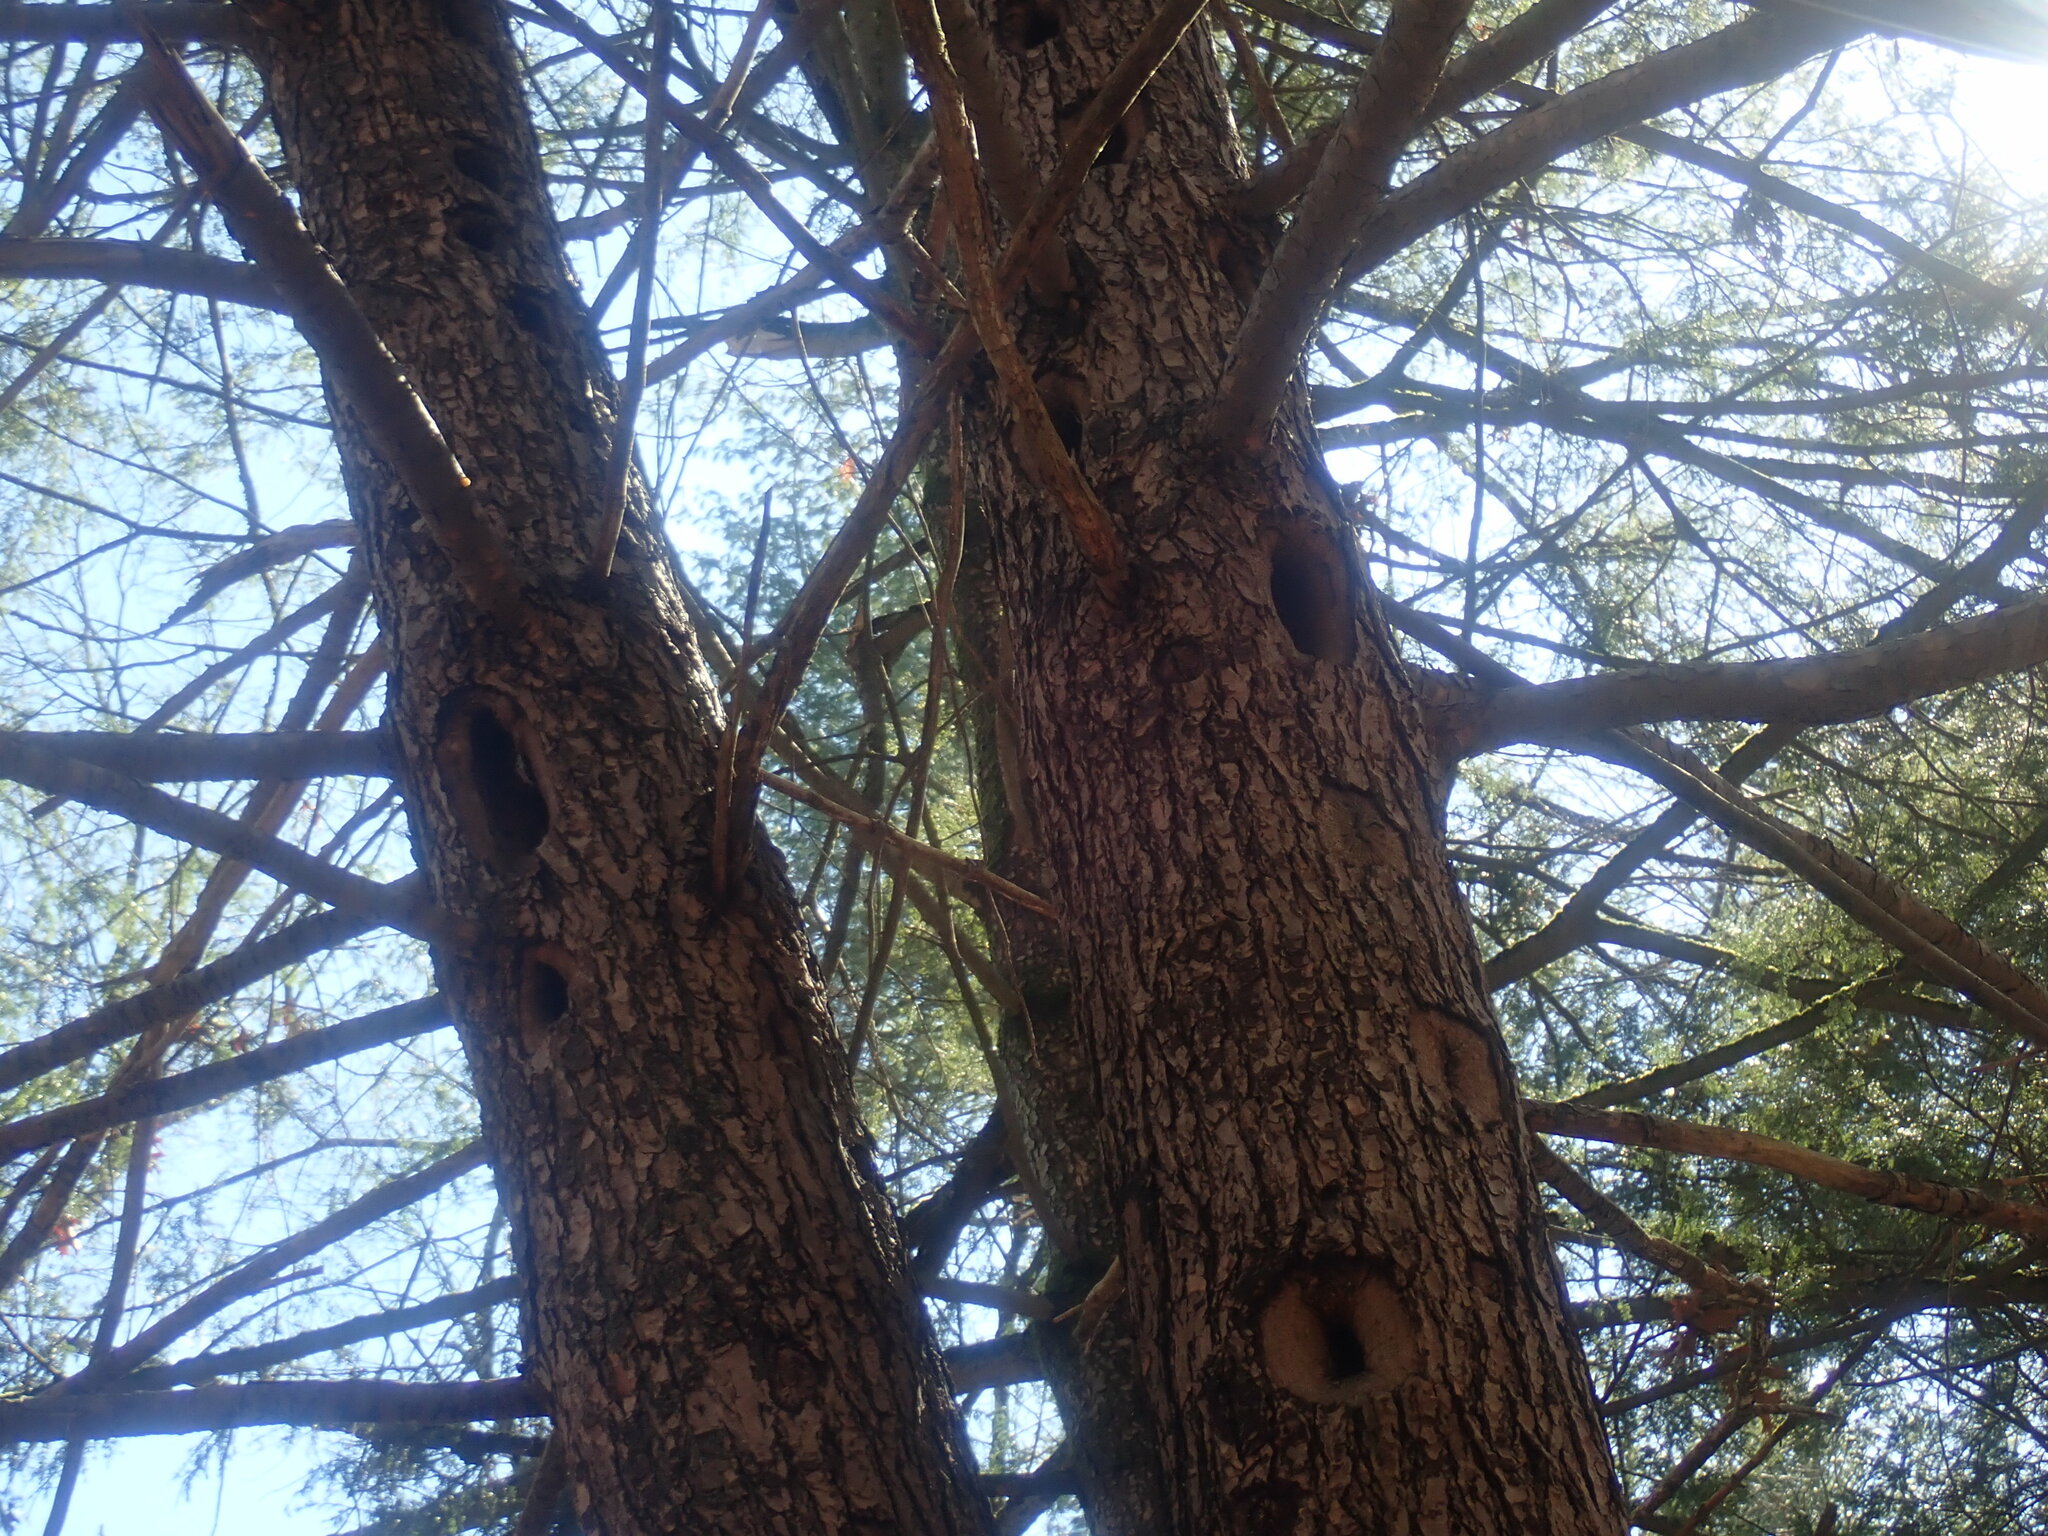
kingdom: Animalia
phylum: Chordata
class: Aves
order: Piciformes
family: Picidae
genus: Dryocopus
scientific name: Dryocopus pileatus
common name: Pileated woodpecker
